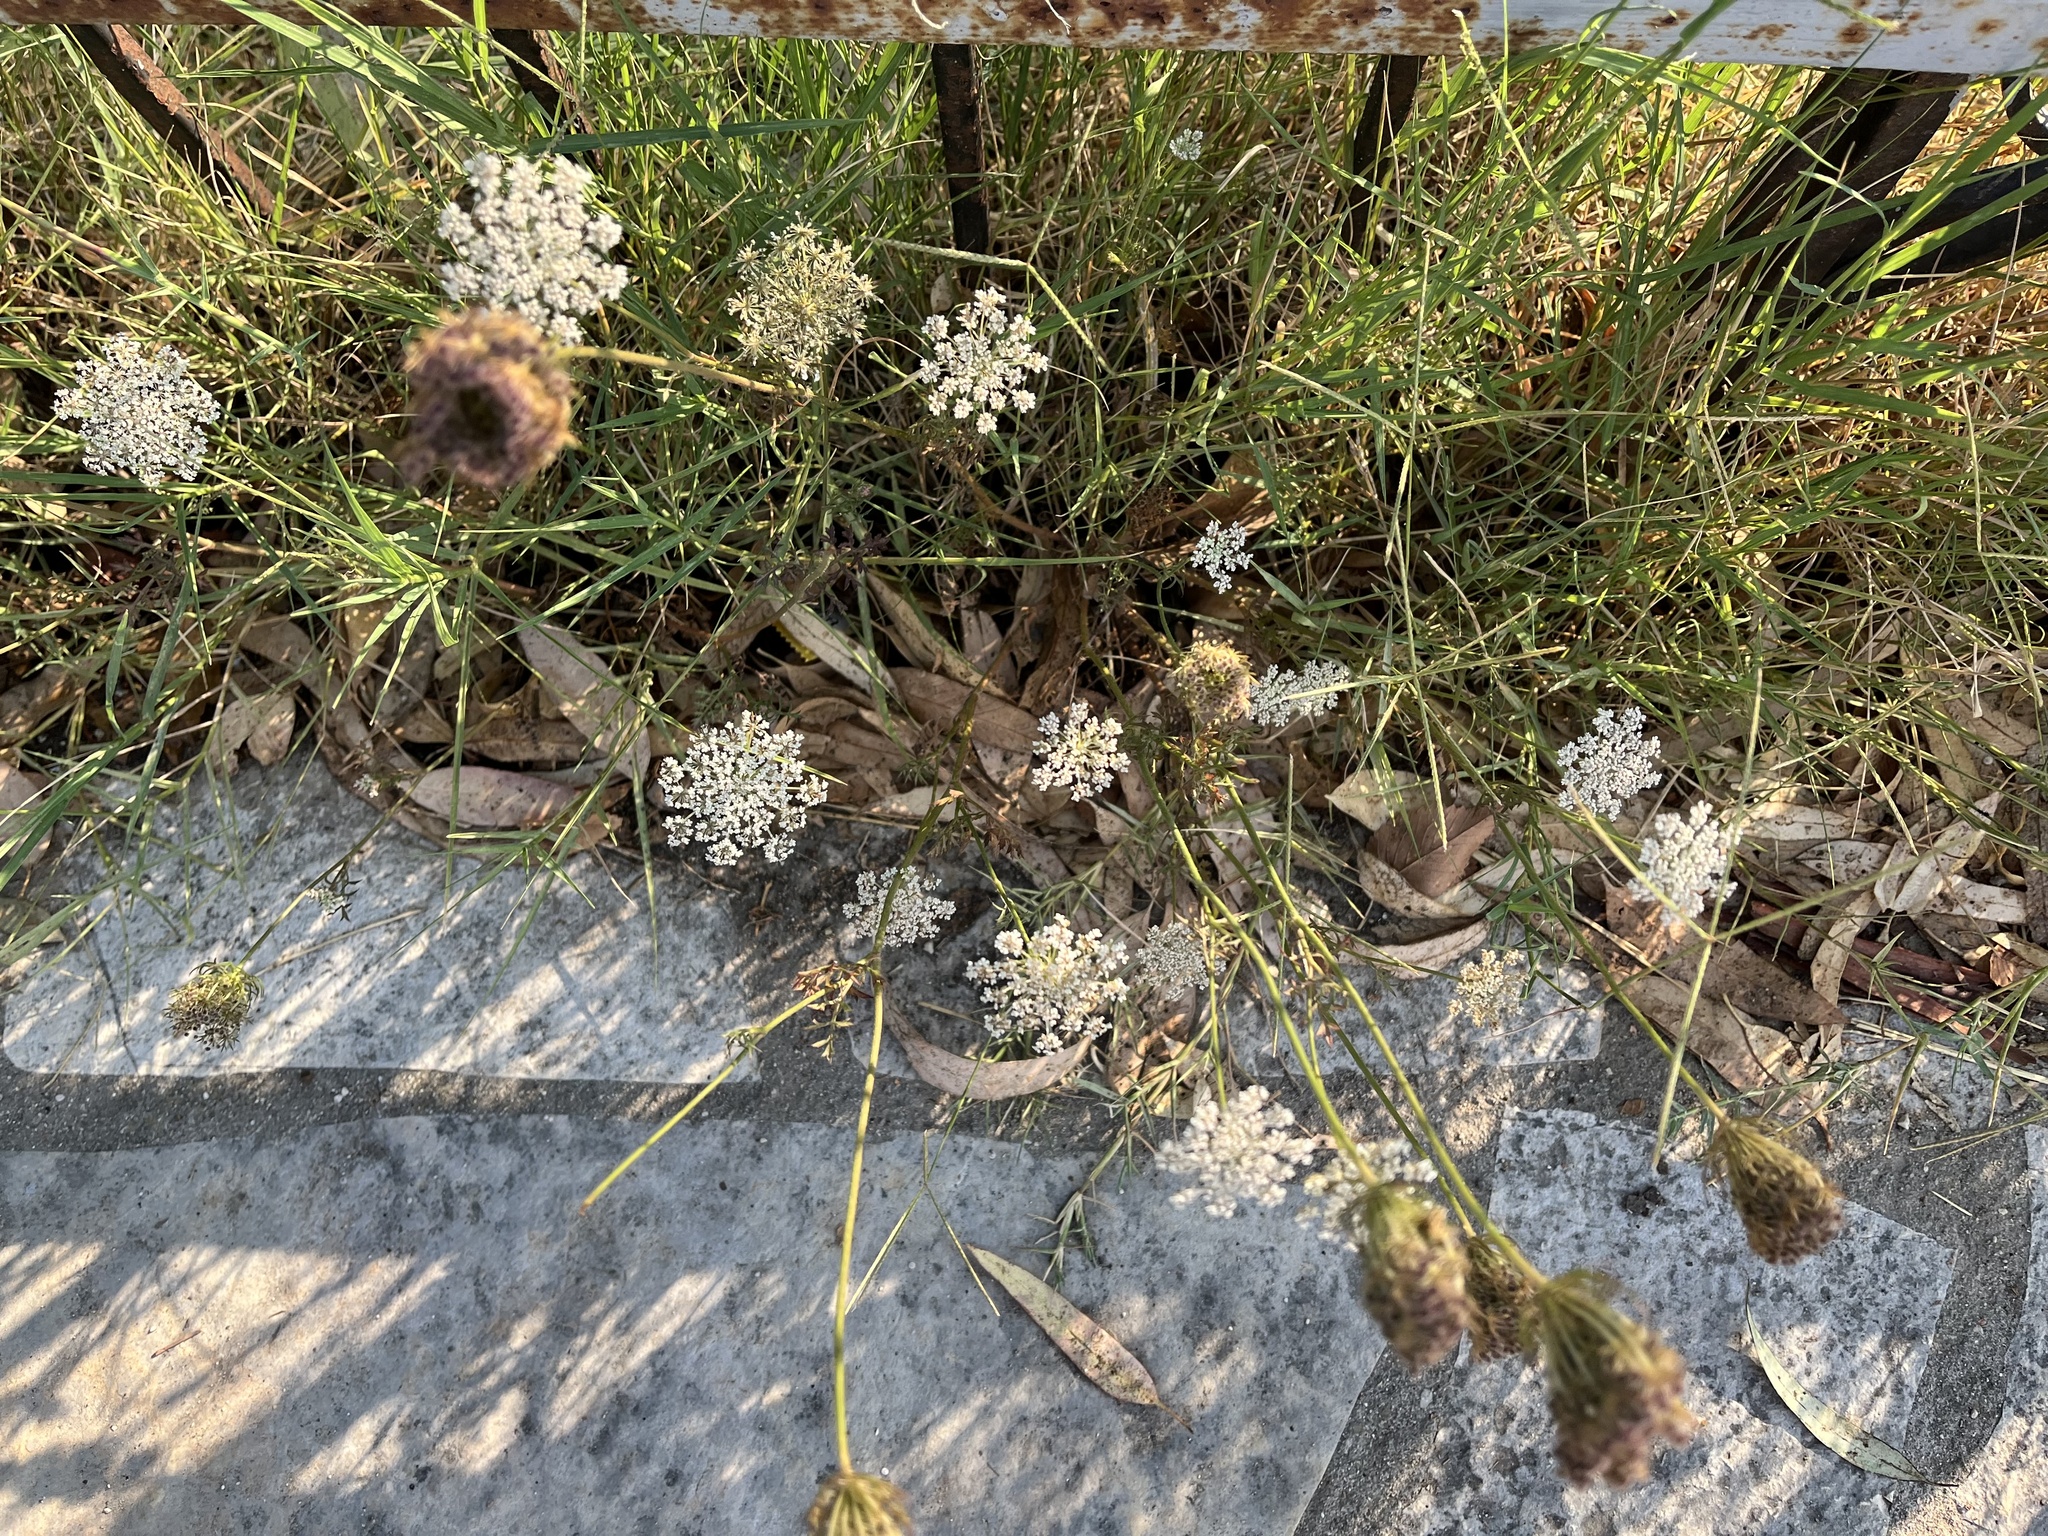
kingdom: Plantae
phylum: Tracheophyta
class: Magnoliopsida
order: Apiales
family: Apiaceae
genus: Daucus
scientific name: Daucus carota
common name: Wild carrot
